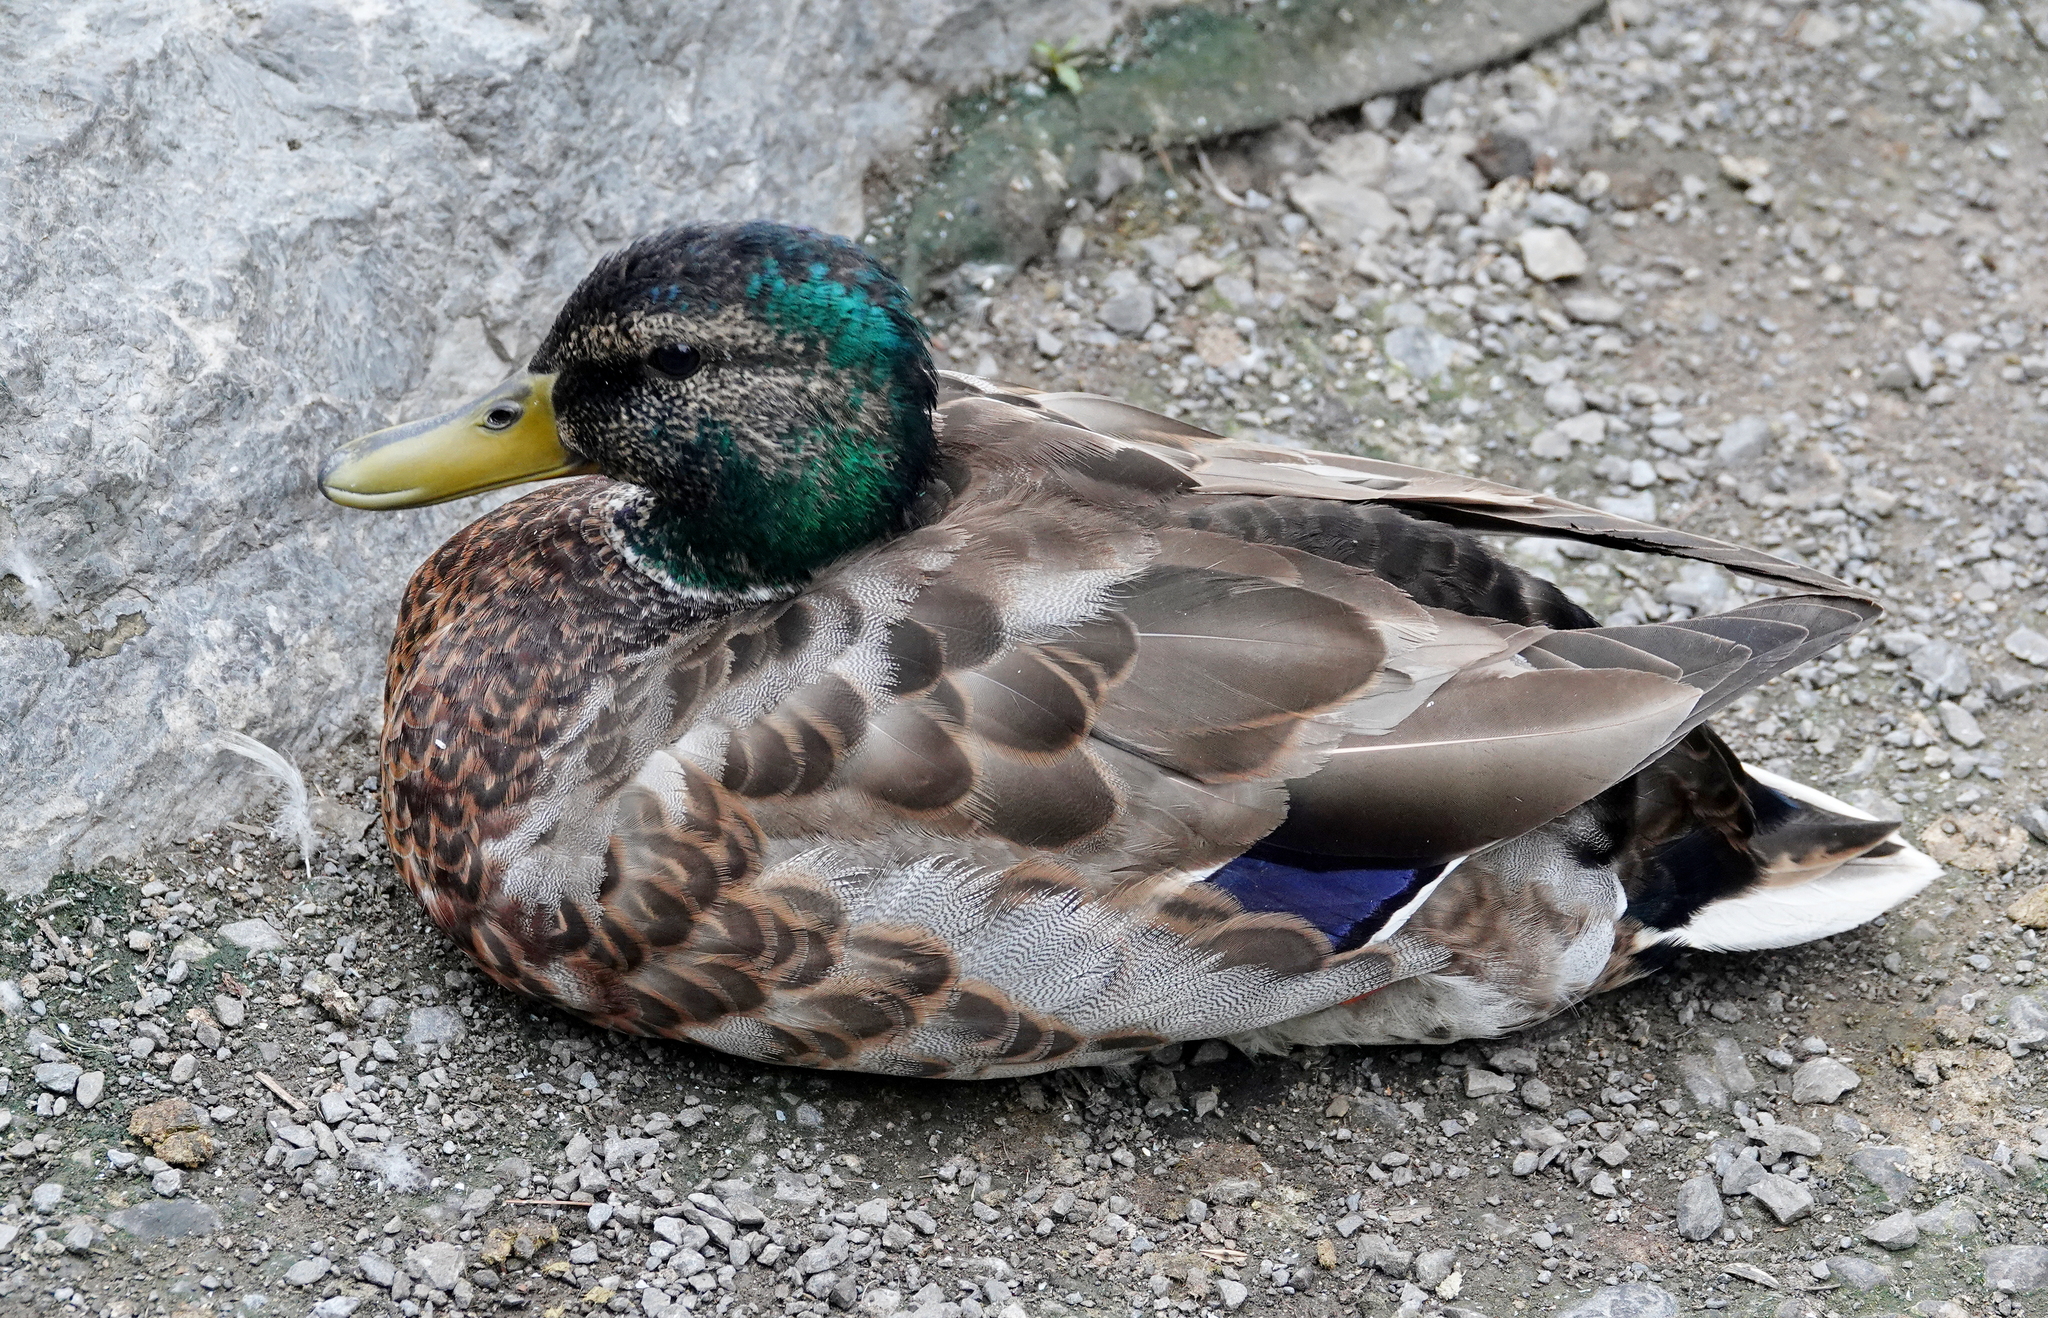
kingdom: Animalia
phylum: Chordata
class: Aves
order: Anseriformes
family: Anatidae
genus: Anas
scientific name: Anas platyrhynchos
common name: Mallard
